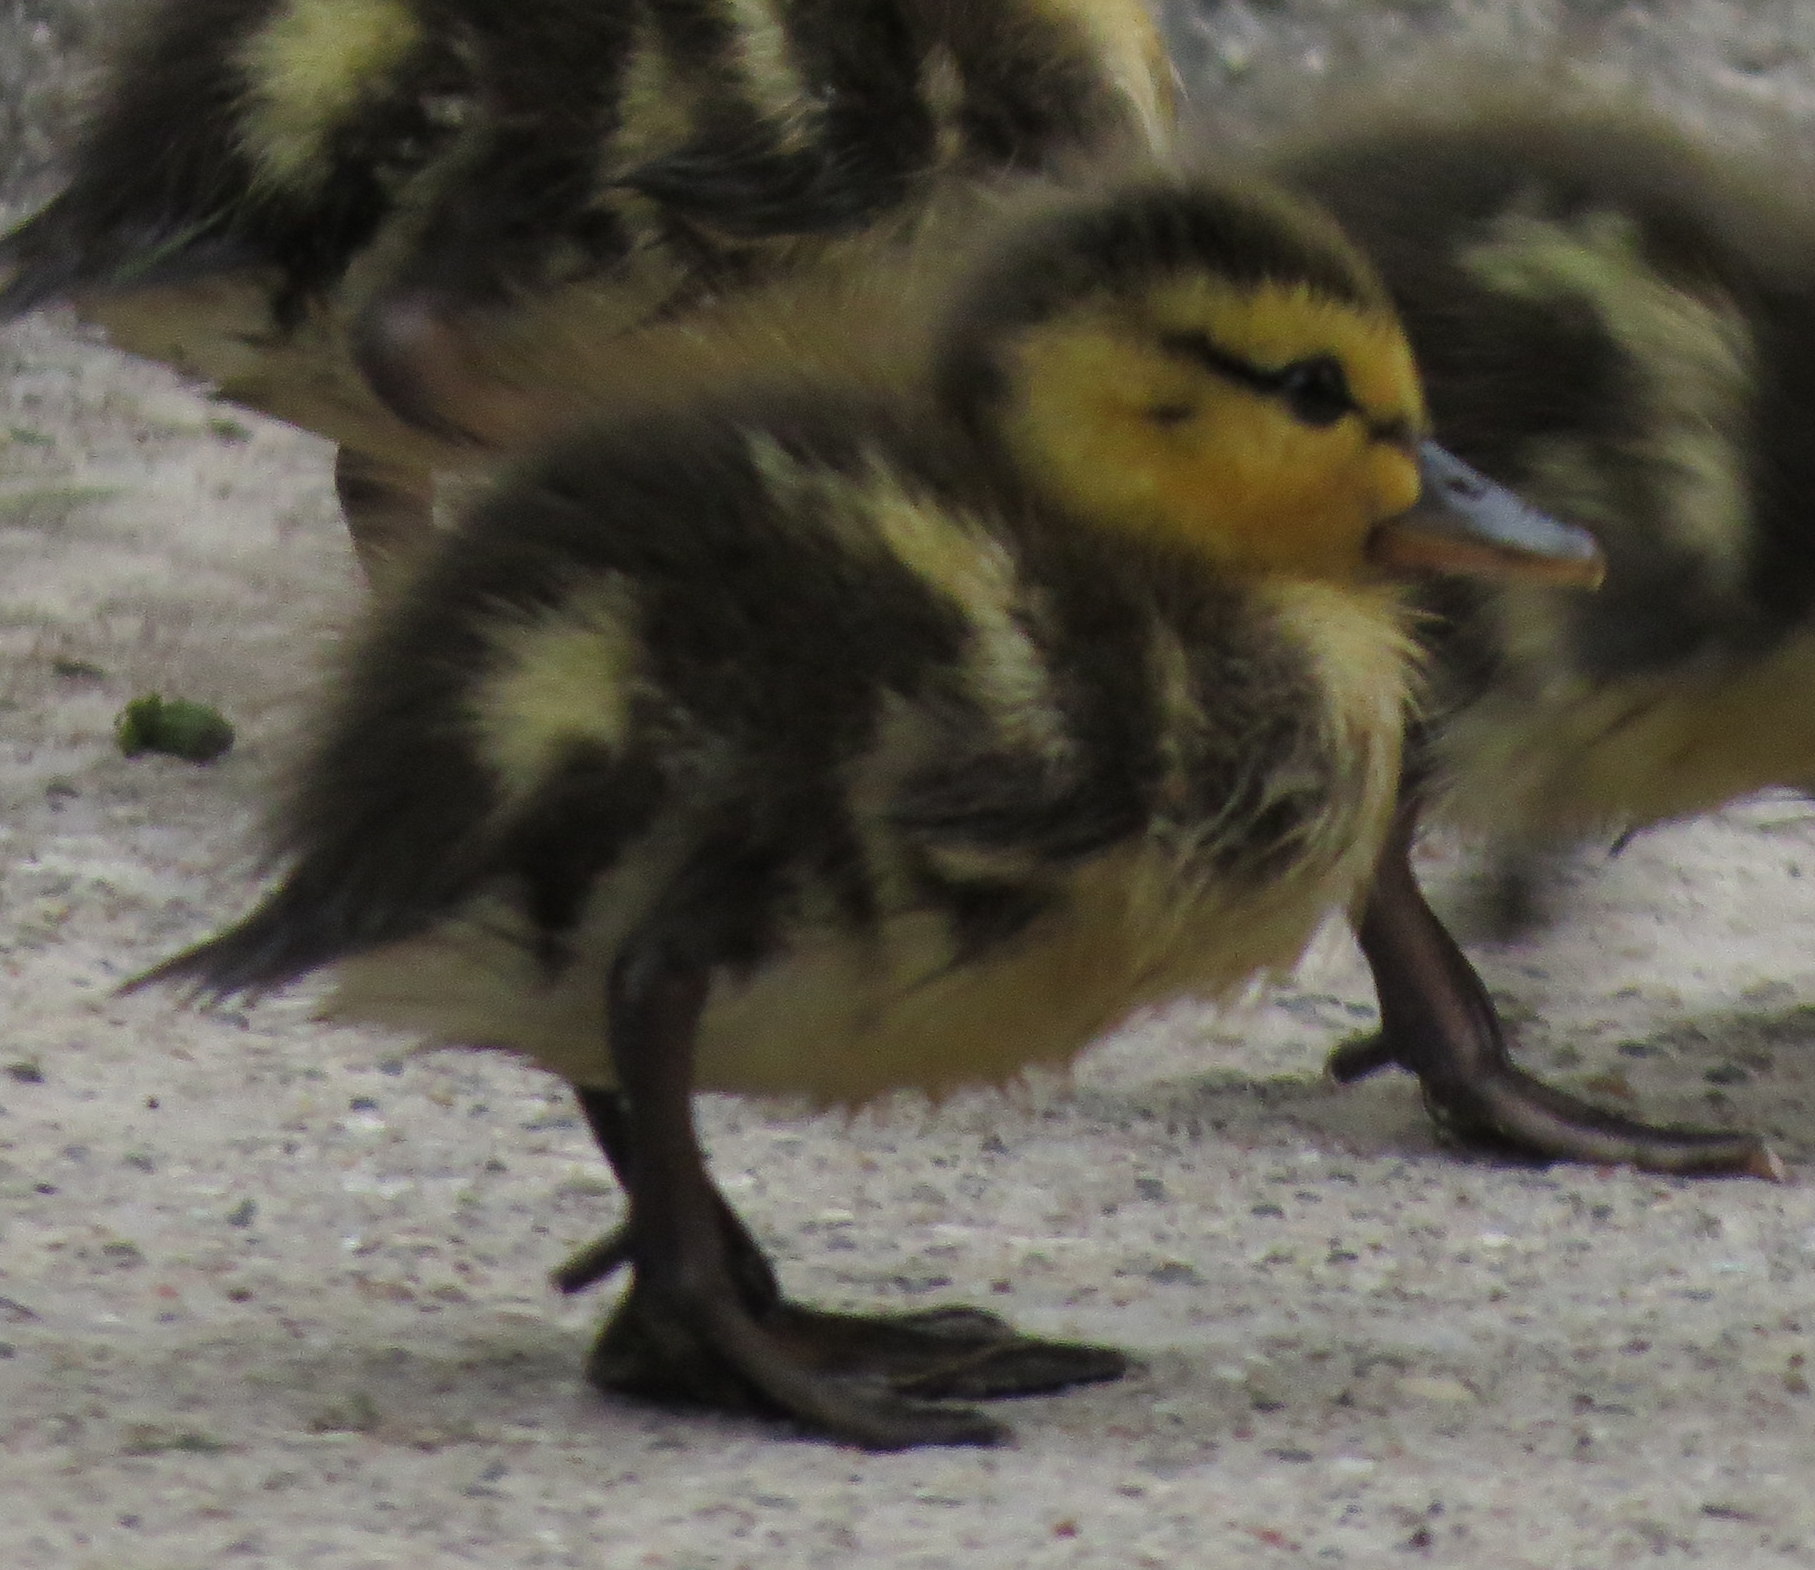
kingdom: Animalia
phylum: Chordata
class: Aves
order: Anseriformes
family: Anatidae
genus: Anas
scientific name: Anas platyrhynchos
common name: Mallard
